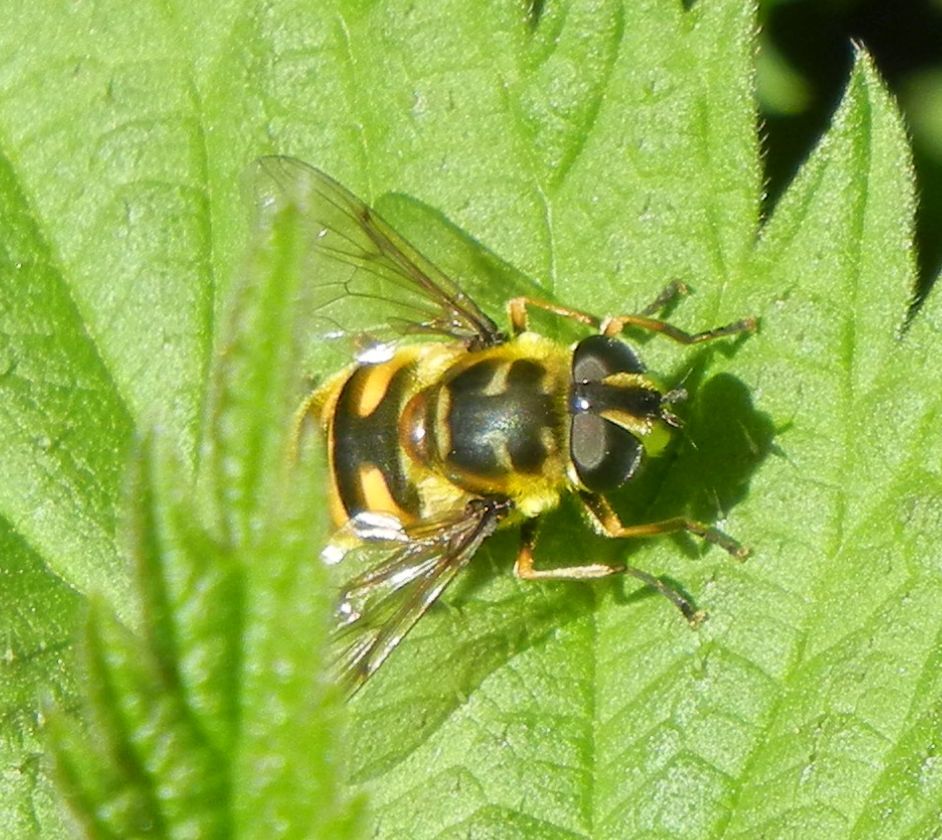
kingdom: Animalia
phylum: Arthropoda
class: Insecta
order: Diptera
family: Syrphidae
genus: Myathropa
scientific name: Myathropa florea
